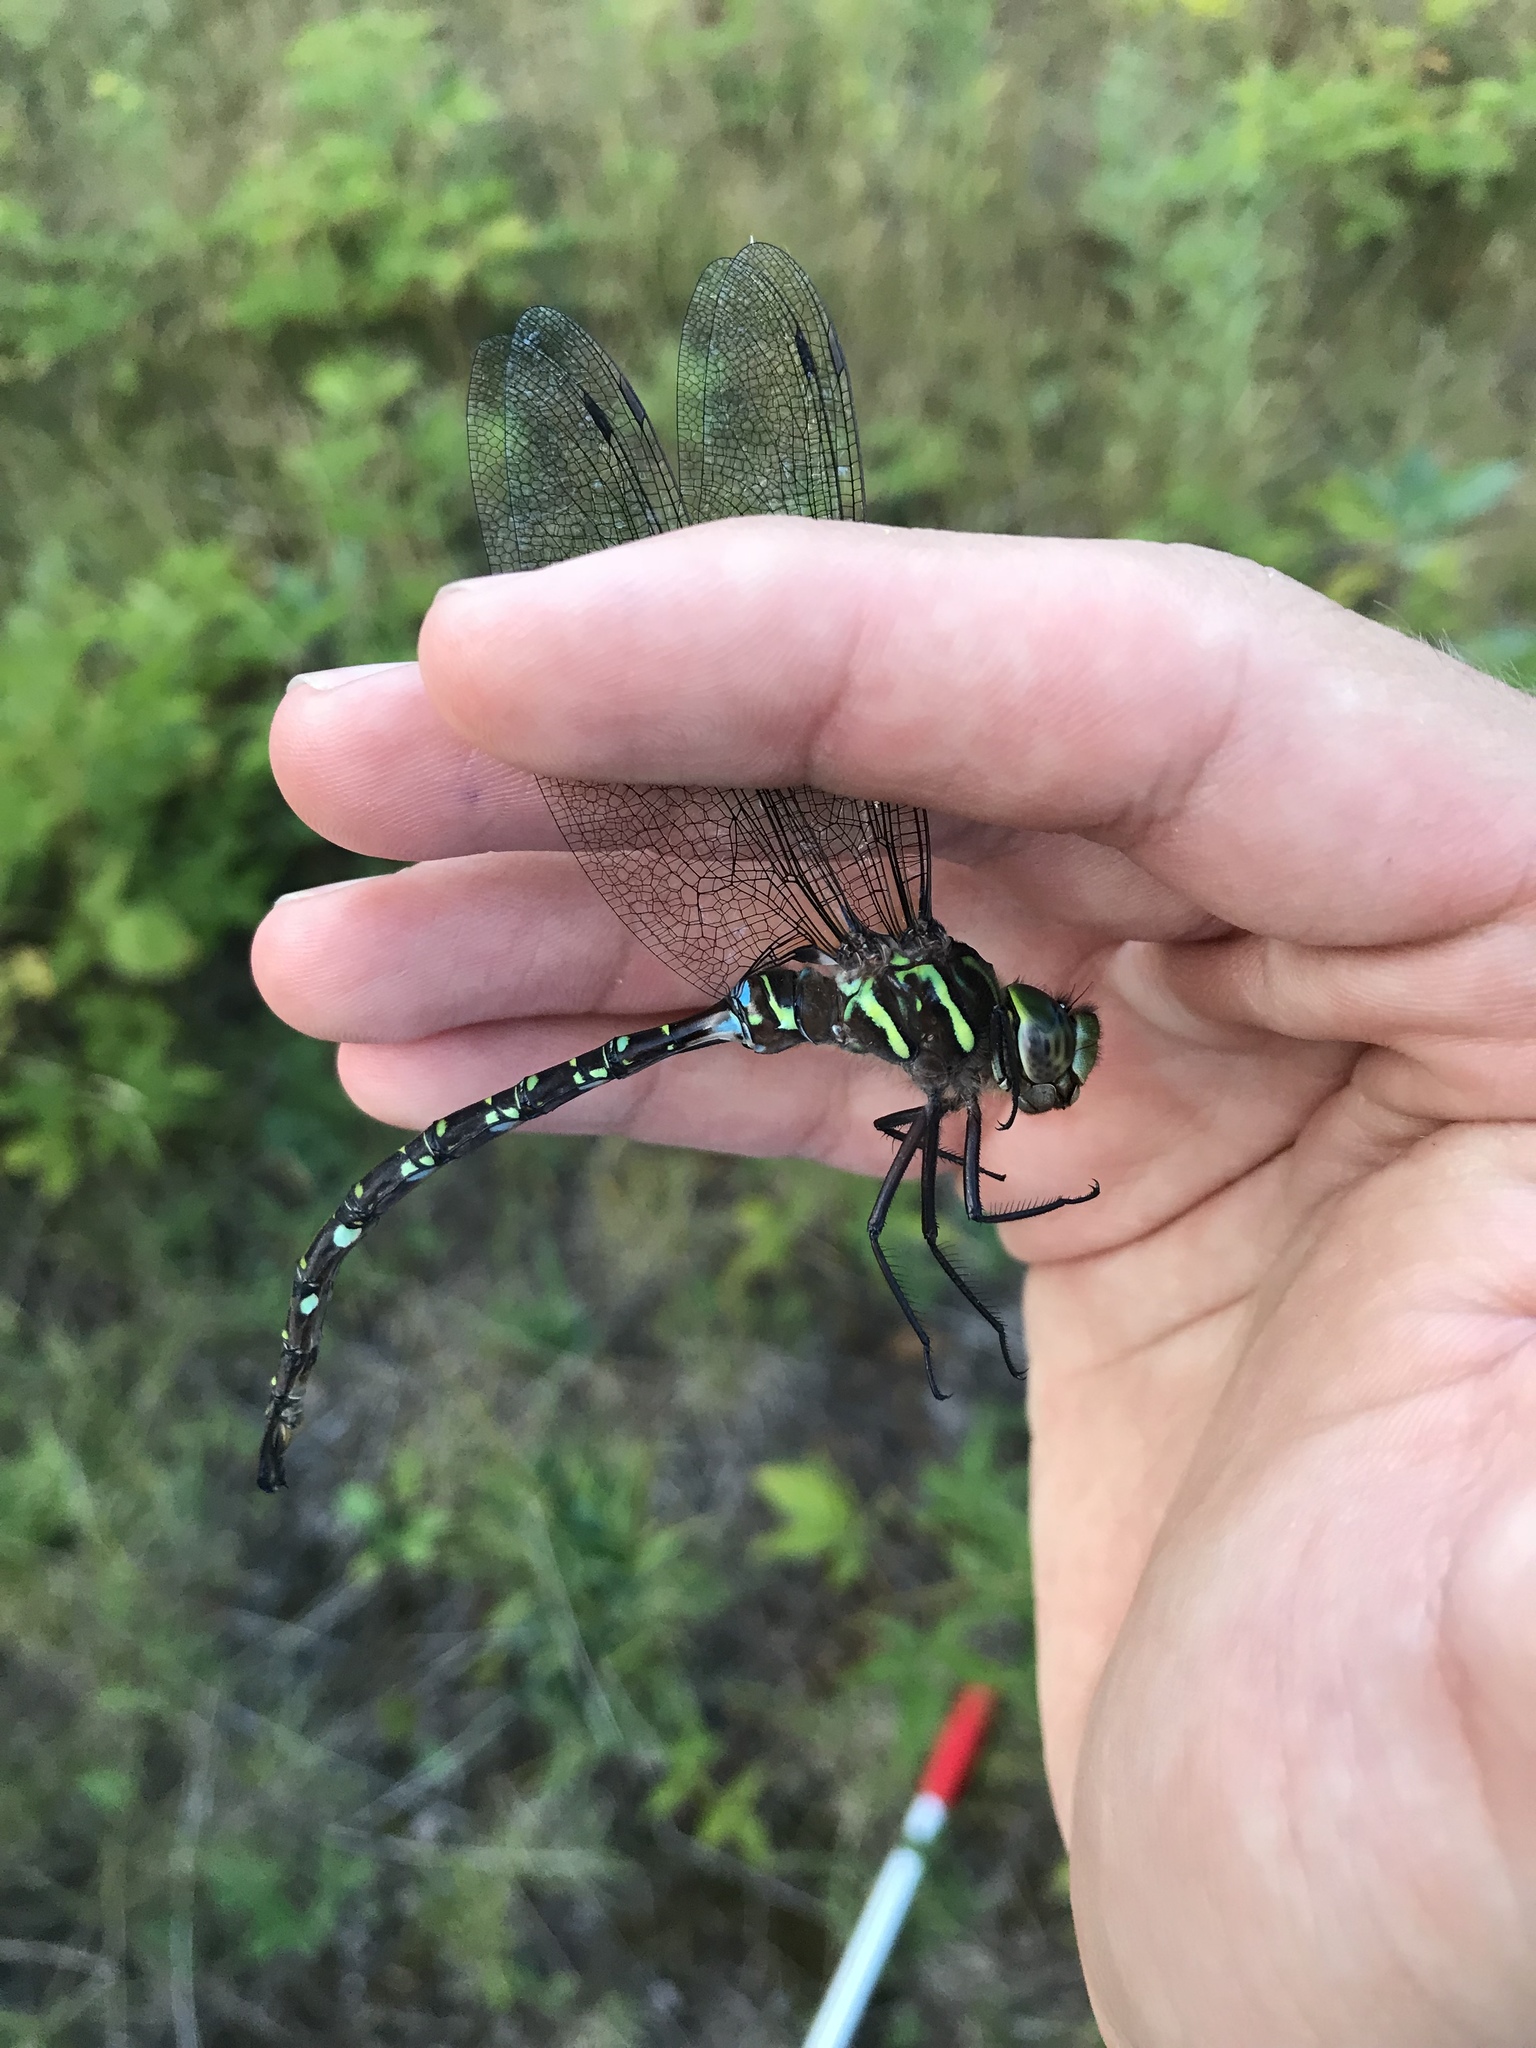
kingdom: Animalia
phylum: Arthropoda
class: Insecta
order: Odonata
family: Aeshnidae
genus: Aeshna
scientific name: Aeshna umbrosa
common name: Shadow darner
